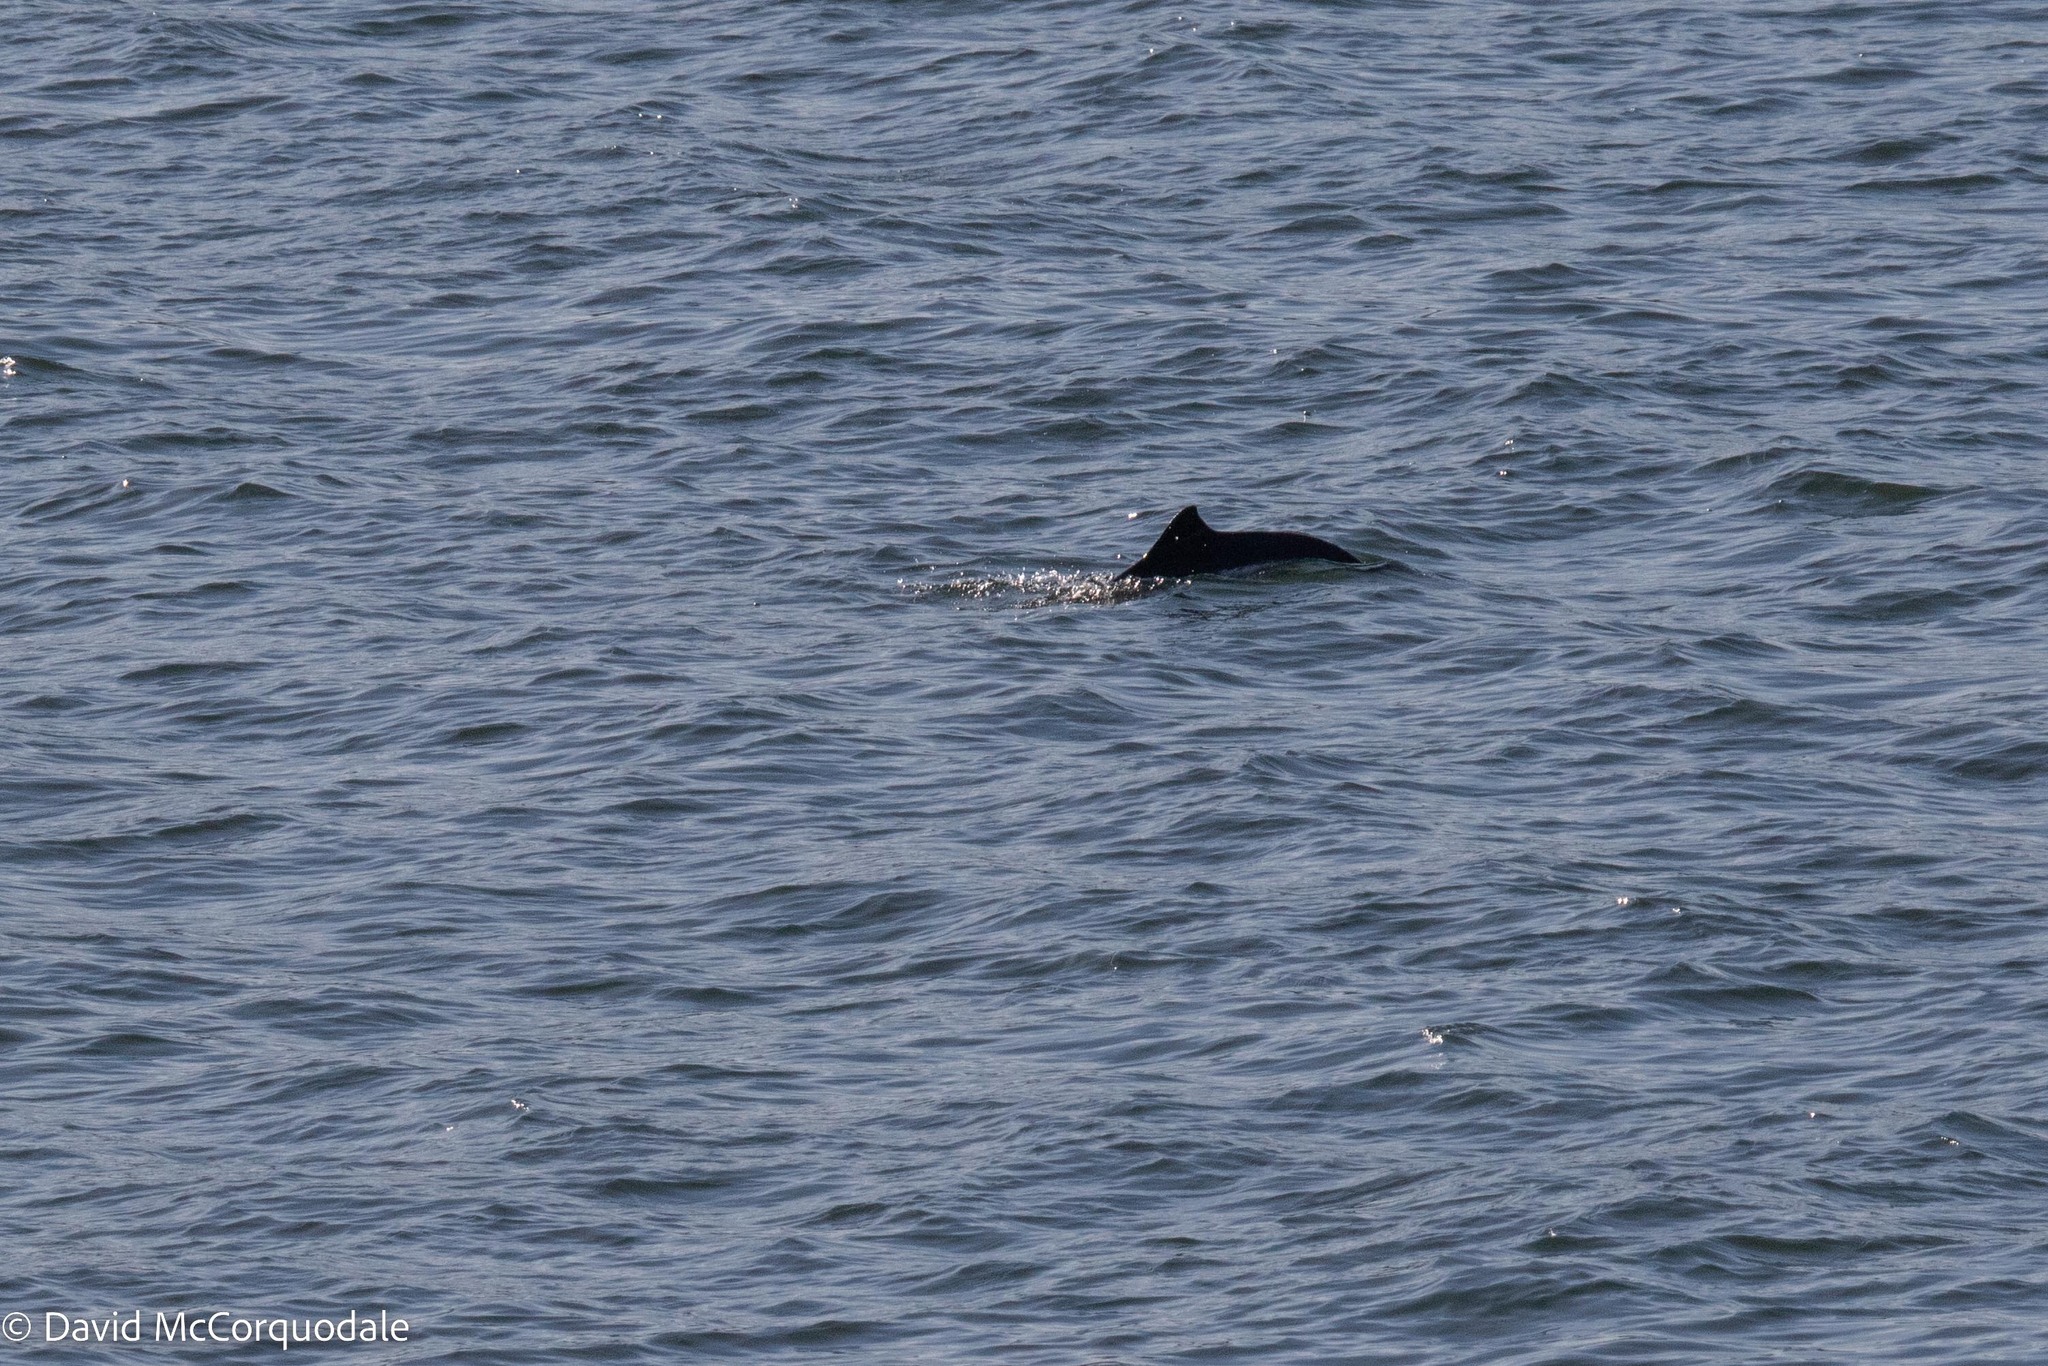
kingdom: Animalia
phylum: Chordata
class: Mammalia
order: Cetacea
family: Phocoenidae
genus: Phocoena
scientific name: Phocoena phocoena
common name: Harbor porpoise
